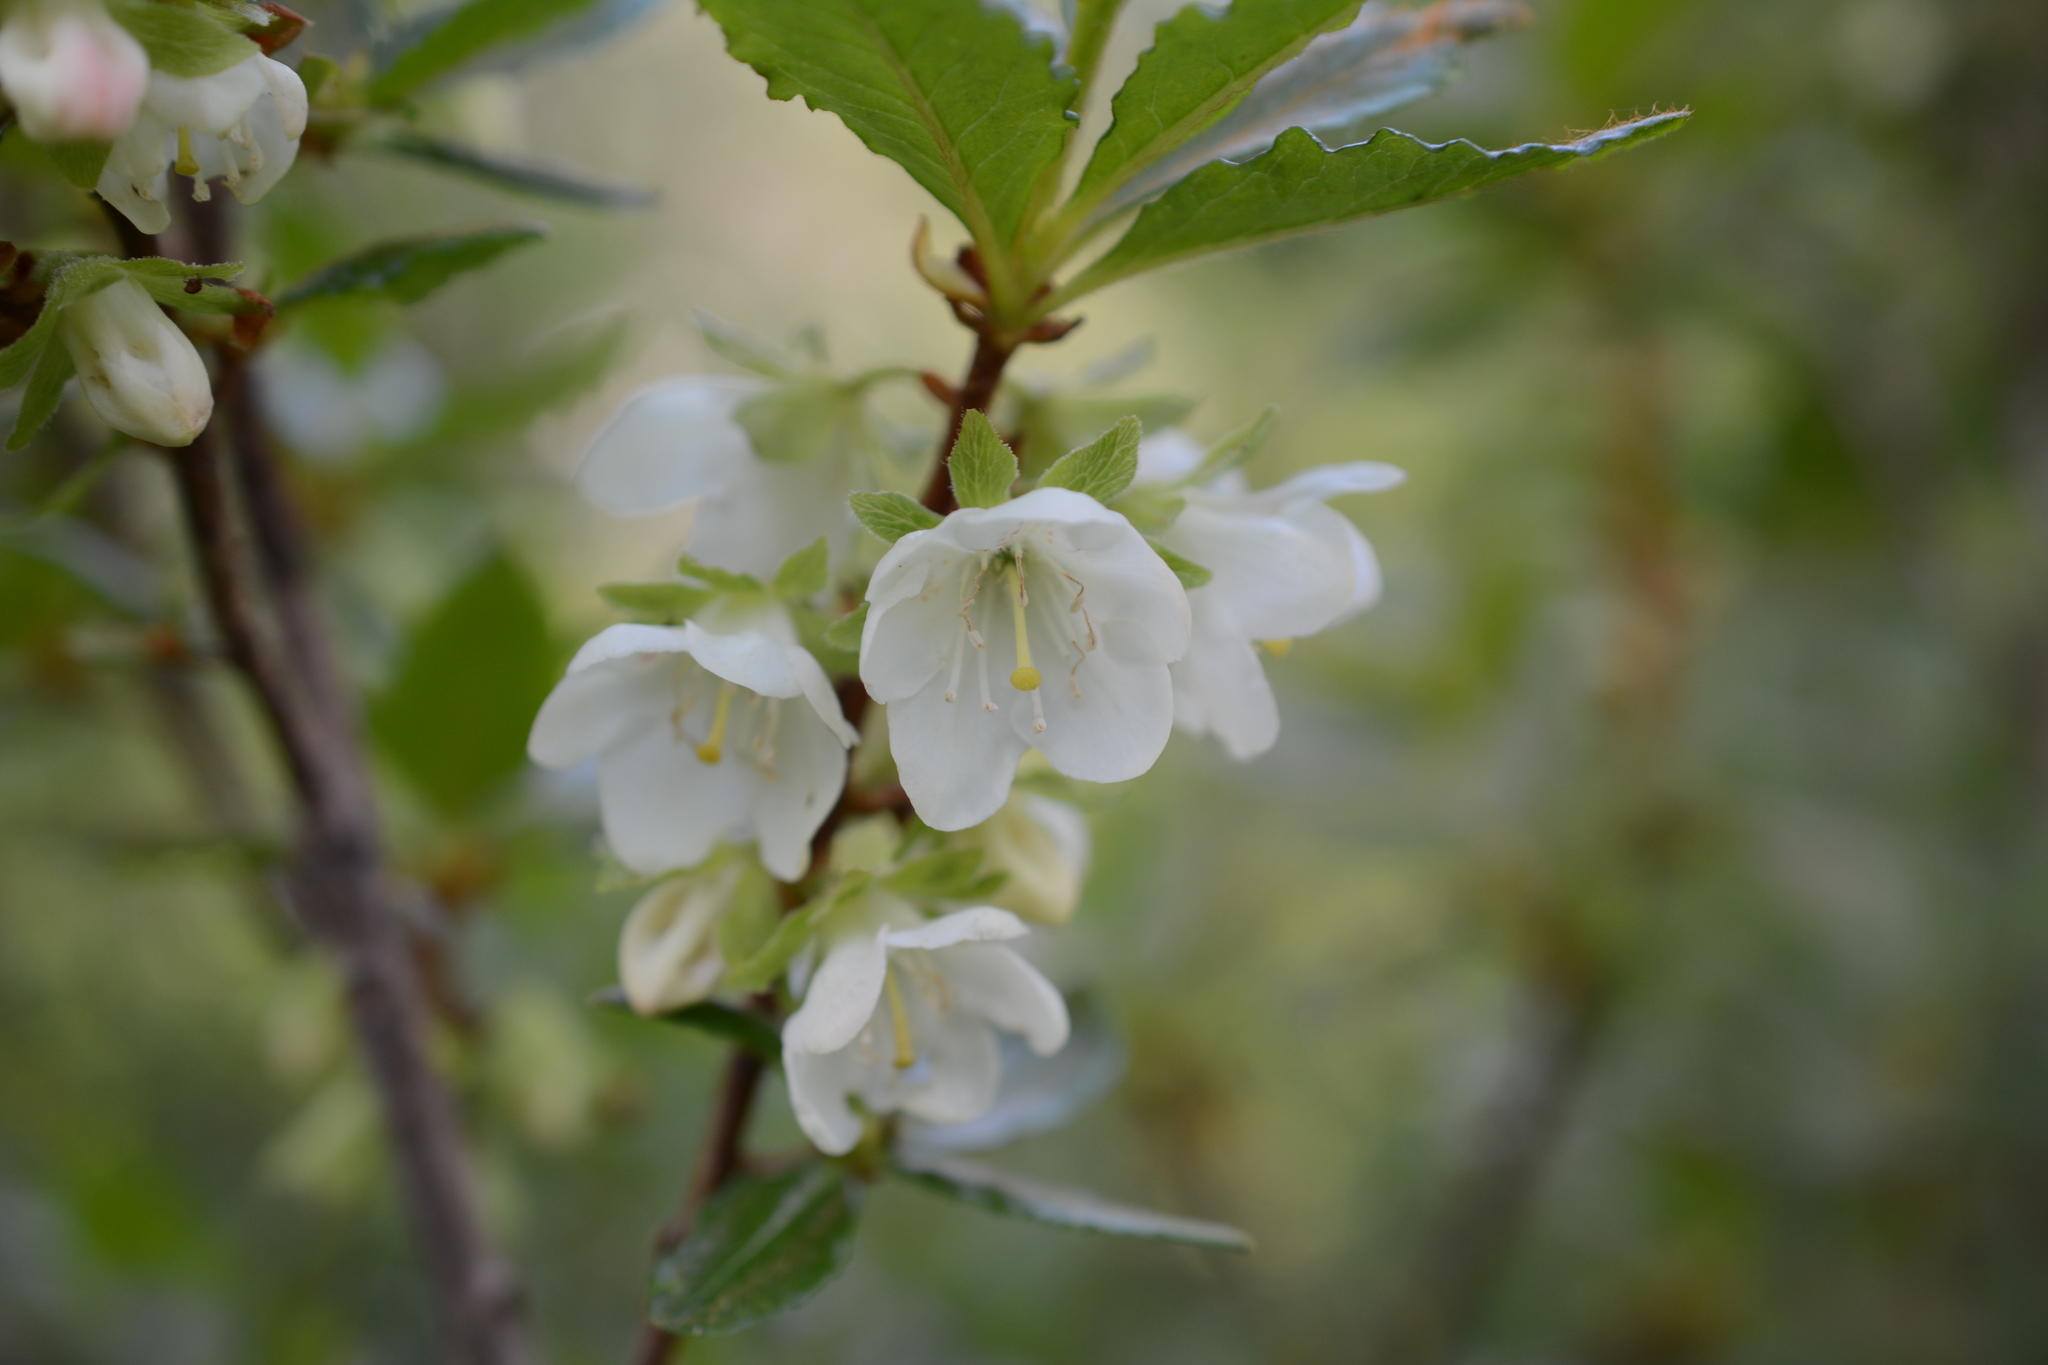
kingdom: Plantae
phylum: Tracheophyta
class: Magnoliopsida
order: Ericales
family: Ericaceae
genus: Rhododendron
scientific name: Rhododendron albiflorum
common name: White rhododendron
